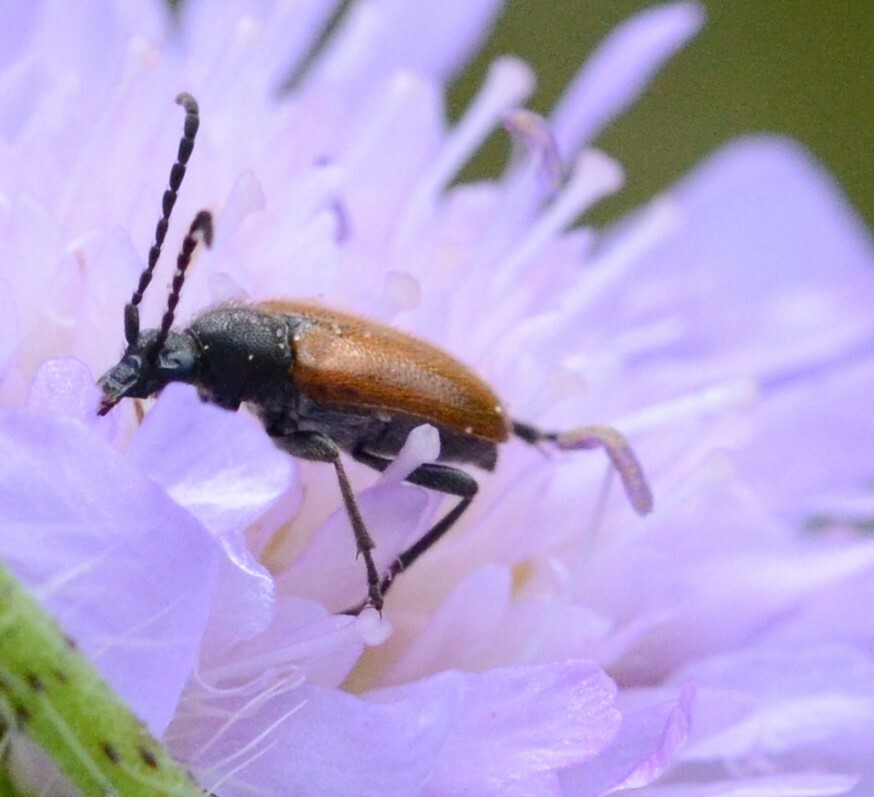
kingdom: Animalia
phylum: Arthropoda
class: Insecta
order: Coleoptera
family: Cerambycidae
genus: Pseudovadonia
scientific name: Pseudovadonia livida
